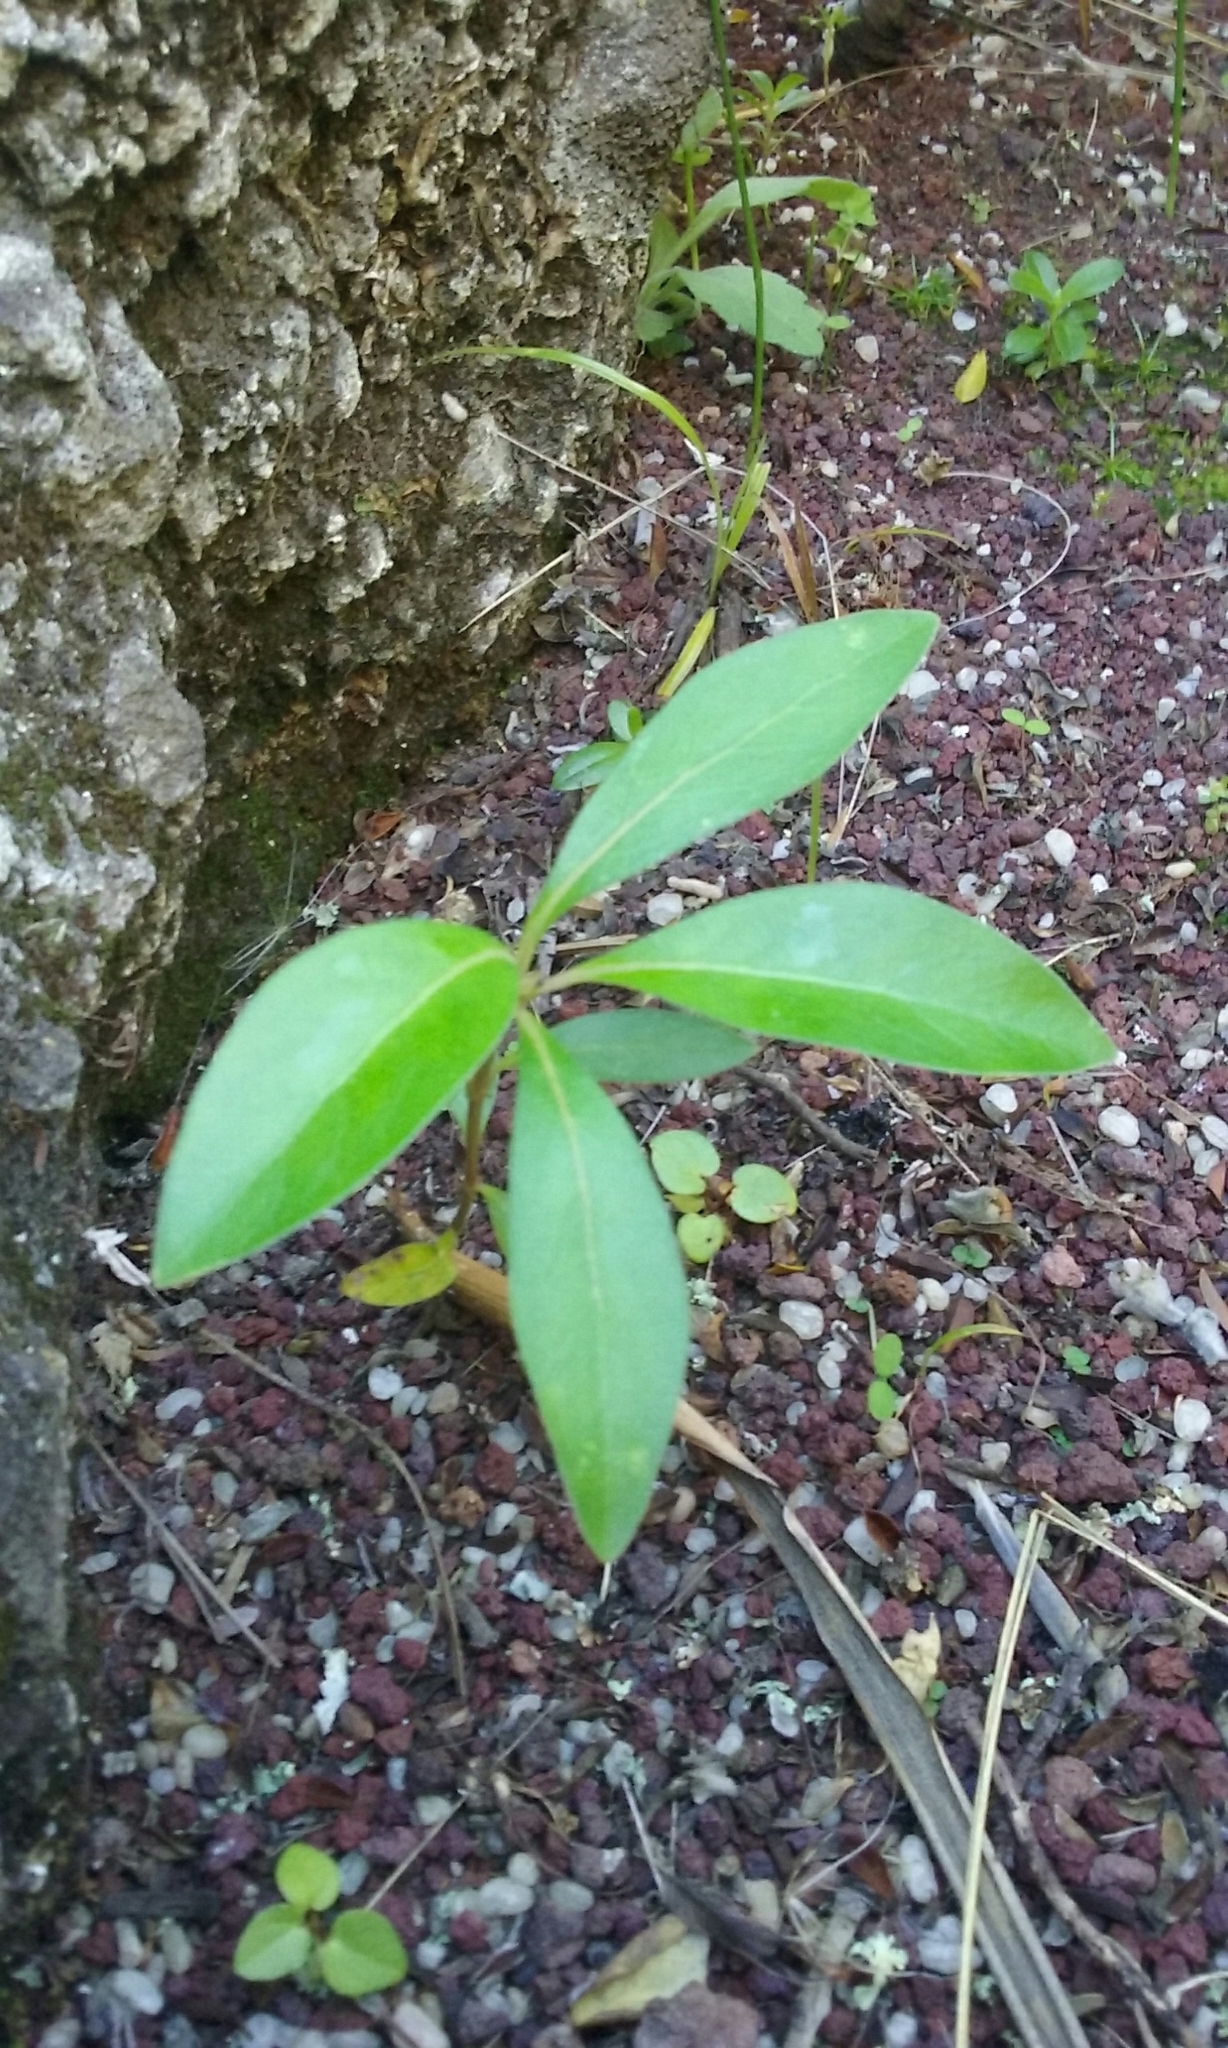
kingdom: Plantae
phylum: Tracheophyta
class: Magnoliopsida
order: Gentianales
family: Rubiaceae
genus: Coprosma
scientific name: Coprosma robusta
